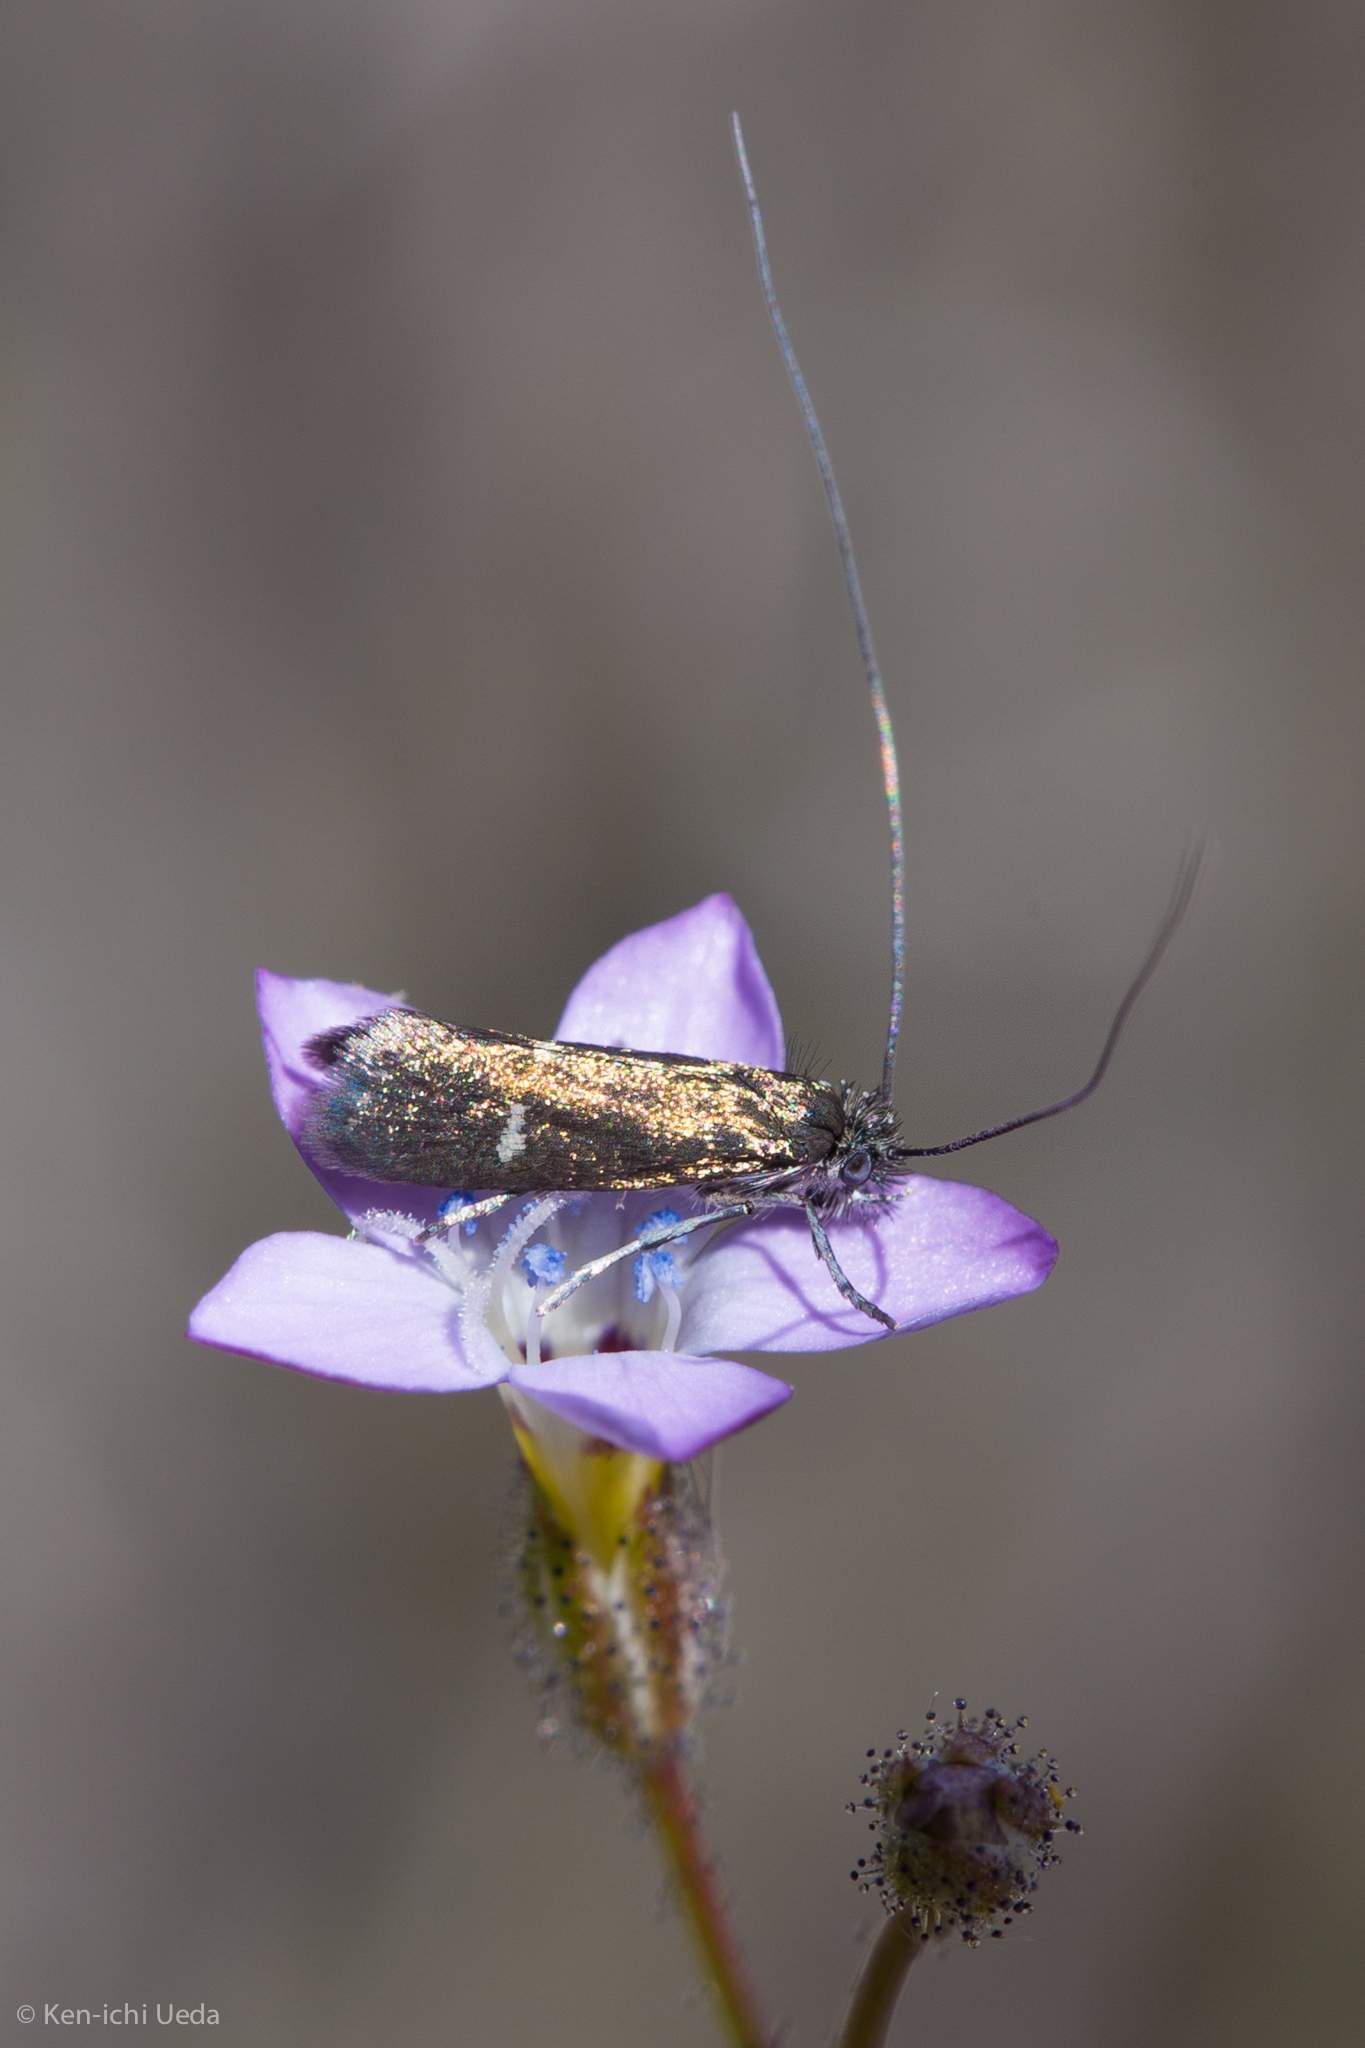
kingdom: Animalia
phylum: Arthropoda
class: Insecta
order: Lepidoptera
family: Adelidae
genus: Adela
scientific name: Adela punctiferella
